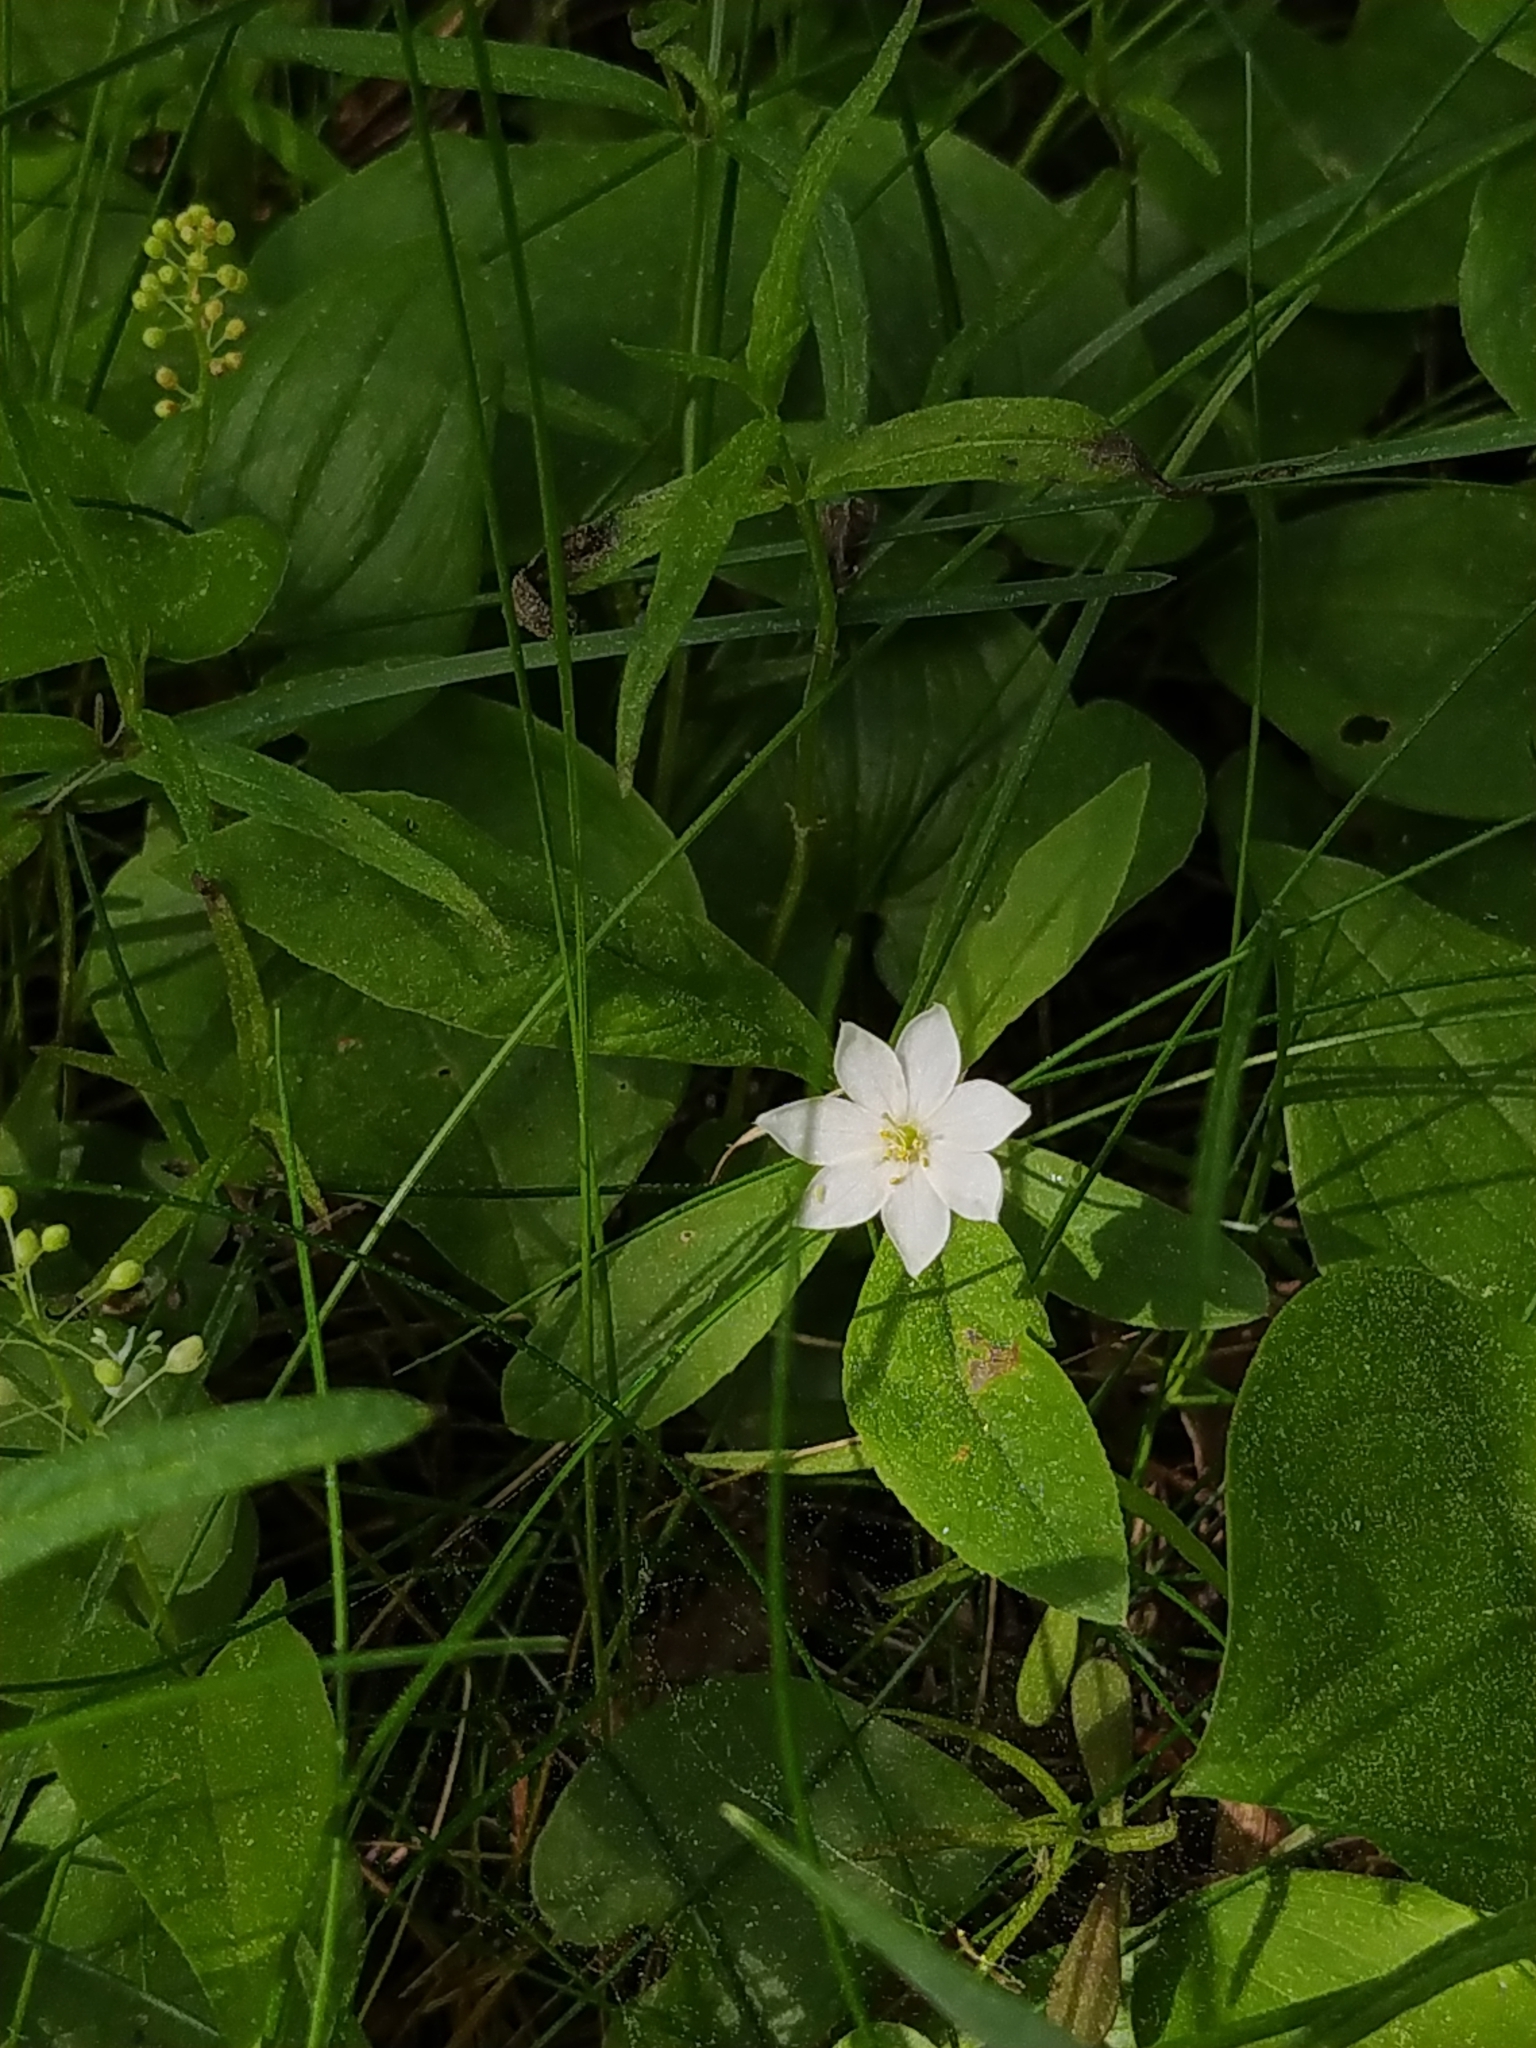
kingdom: Plantae
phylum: Tracheophyta
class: Magnoliopsida
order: Ericales
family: Primulaceae
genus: Lysimachia
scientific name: Lysimachia europaea
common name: Arctic starflower
